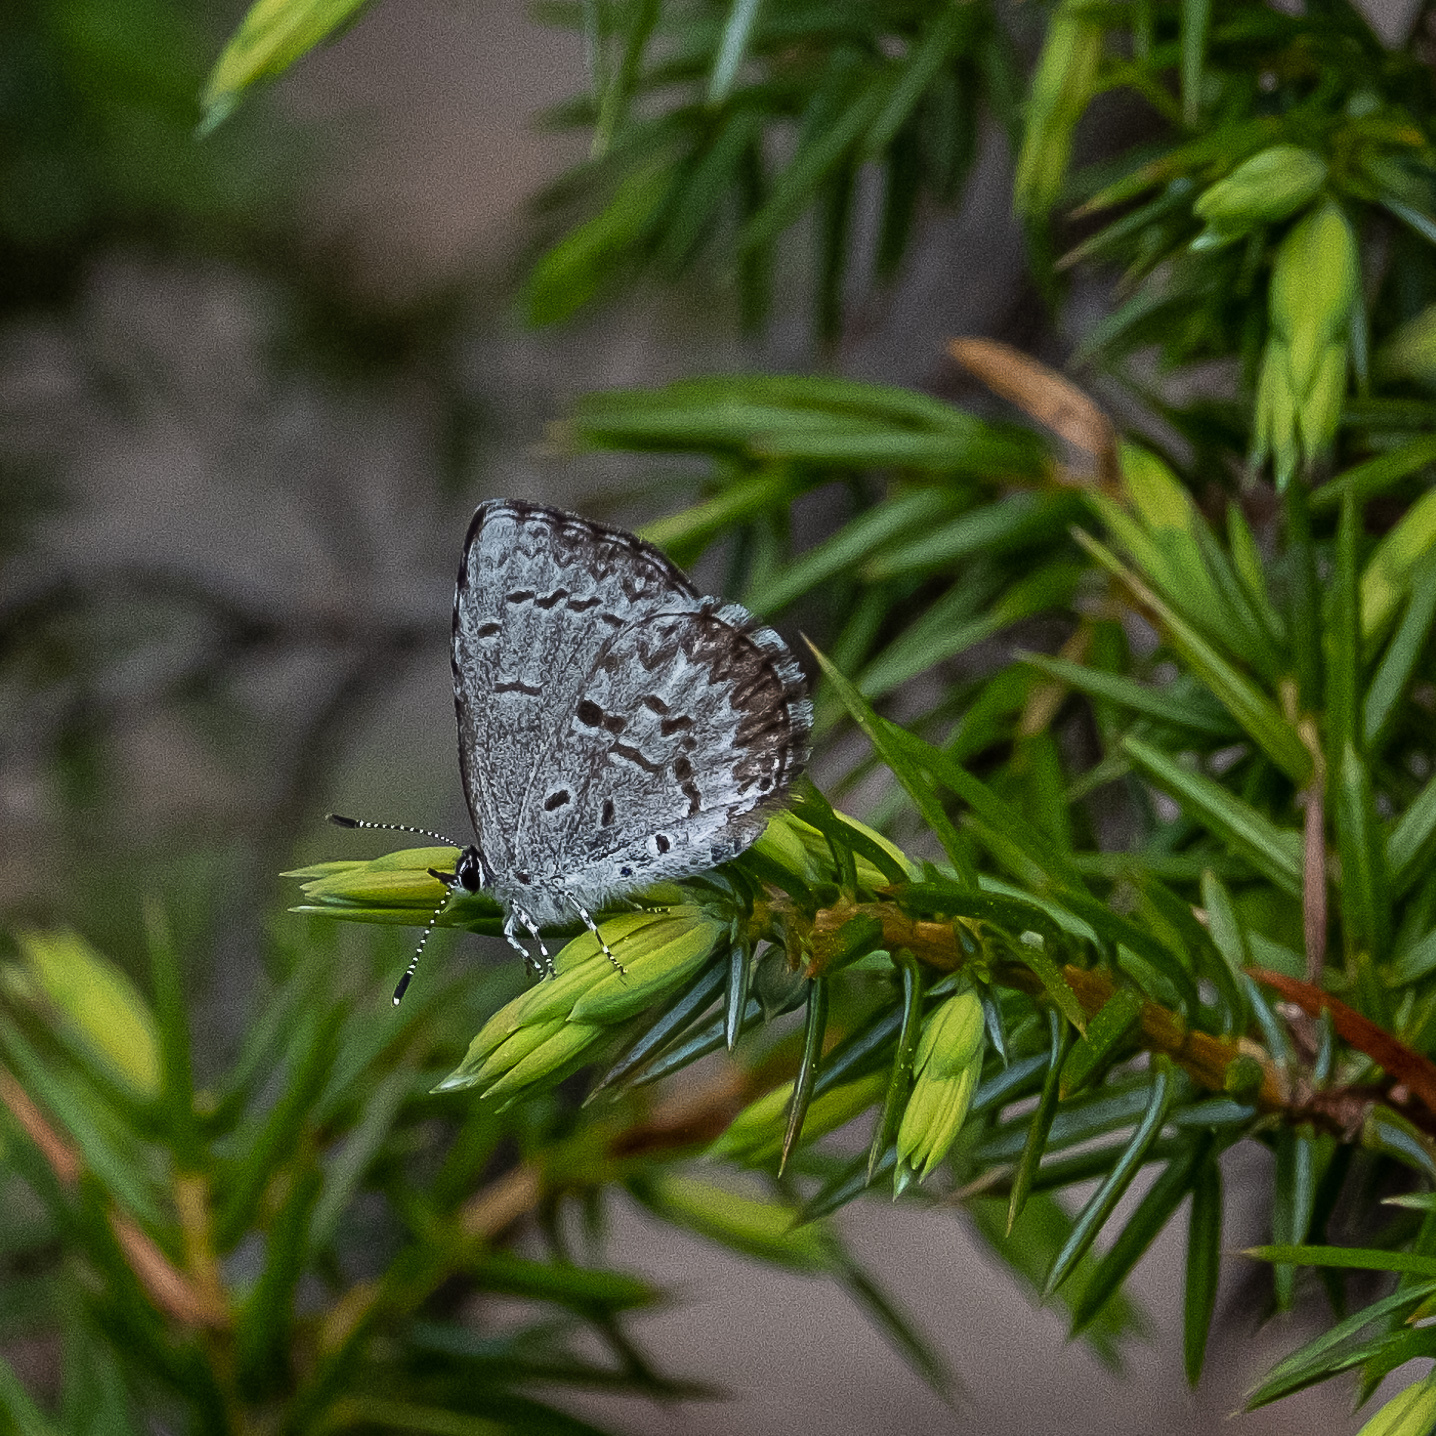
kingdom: Animalia
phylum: Arthropoda
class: Insecta
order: Lepidoptera
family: Lycaenidae
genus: Celastrina
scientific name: Celastrina lucia
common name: Lucia azure
